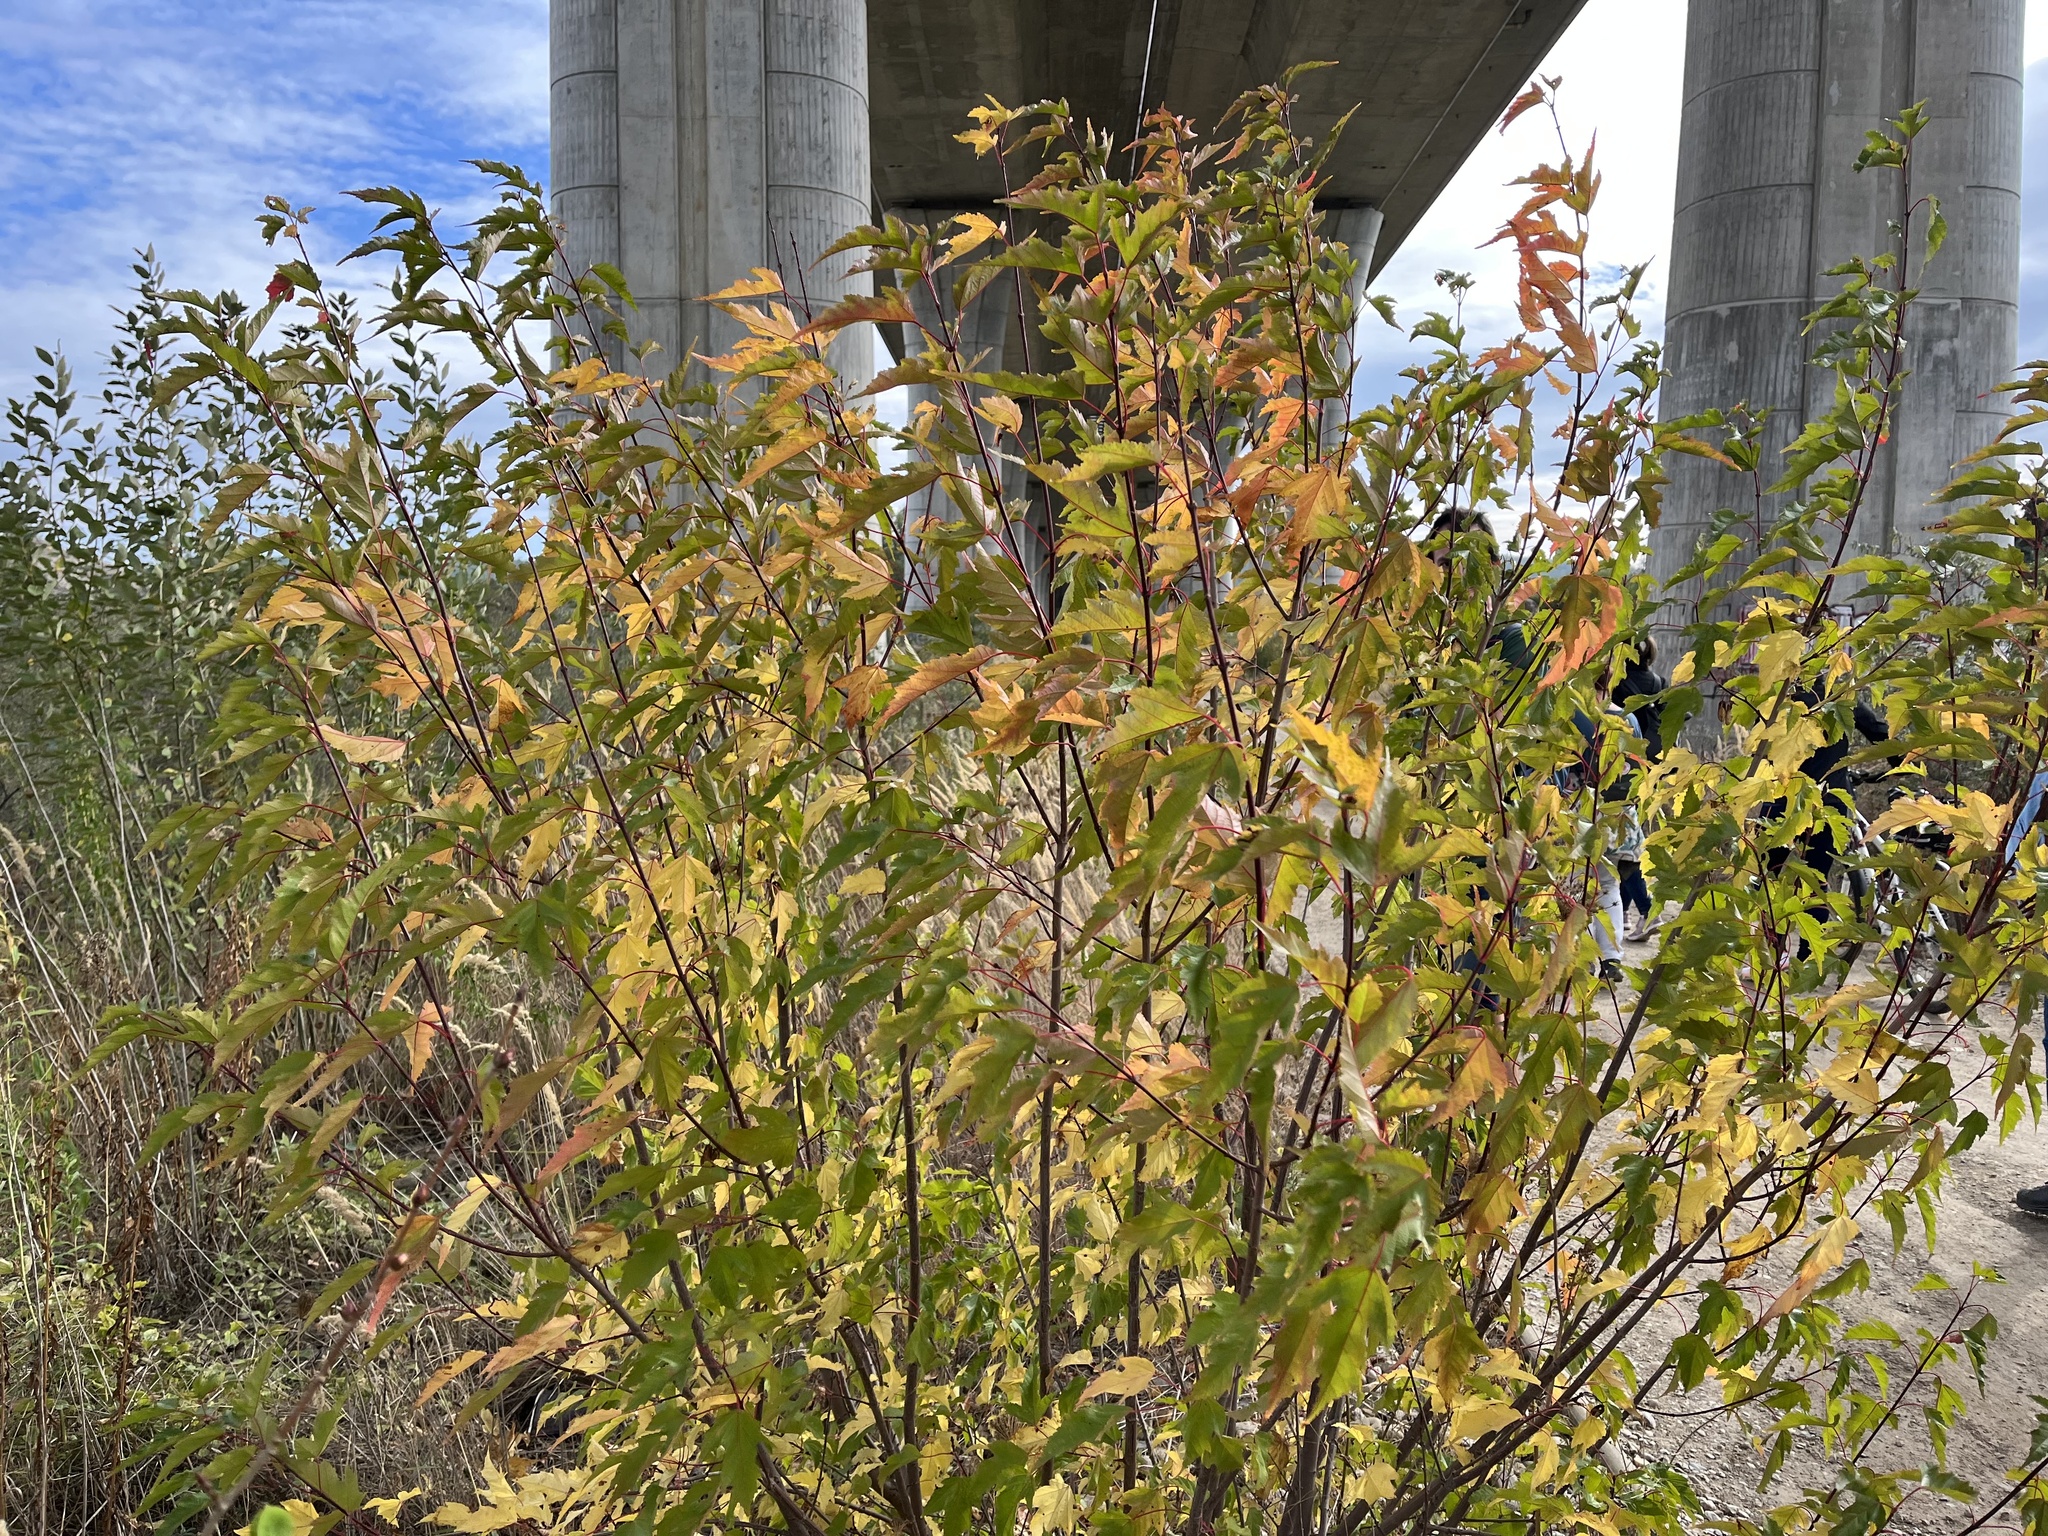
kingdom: Plantae
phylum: Tracheophyta
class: Magnoliopsida
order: Sapindales
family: Sapindaceae
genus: Acer
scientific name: Acer tataricum
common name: Tartar maple
